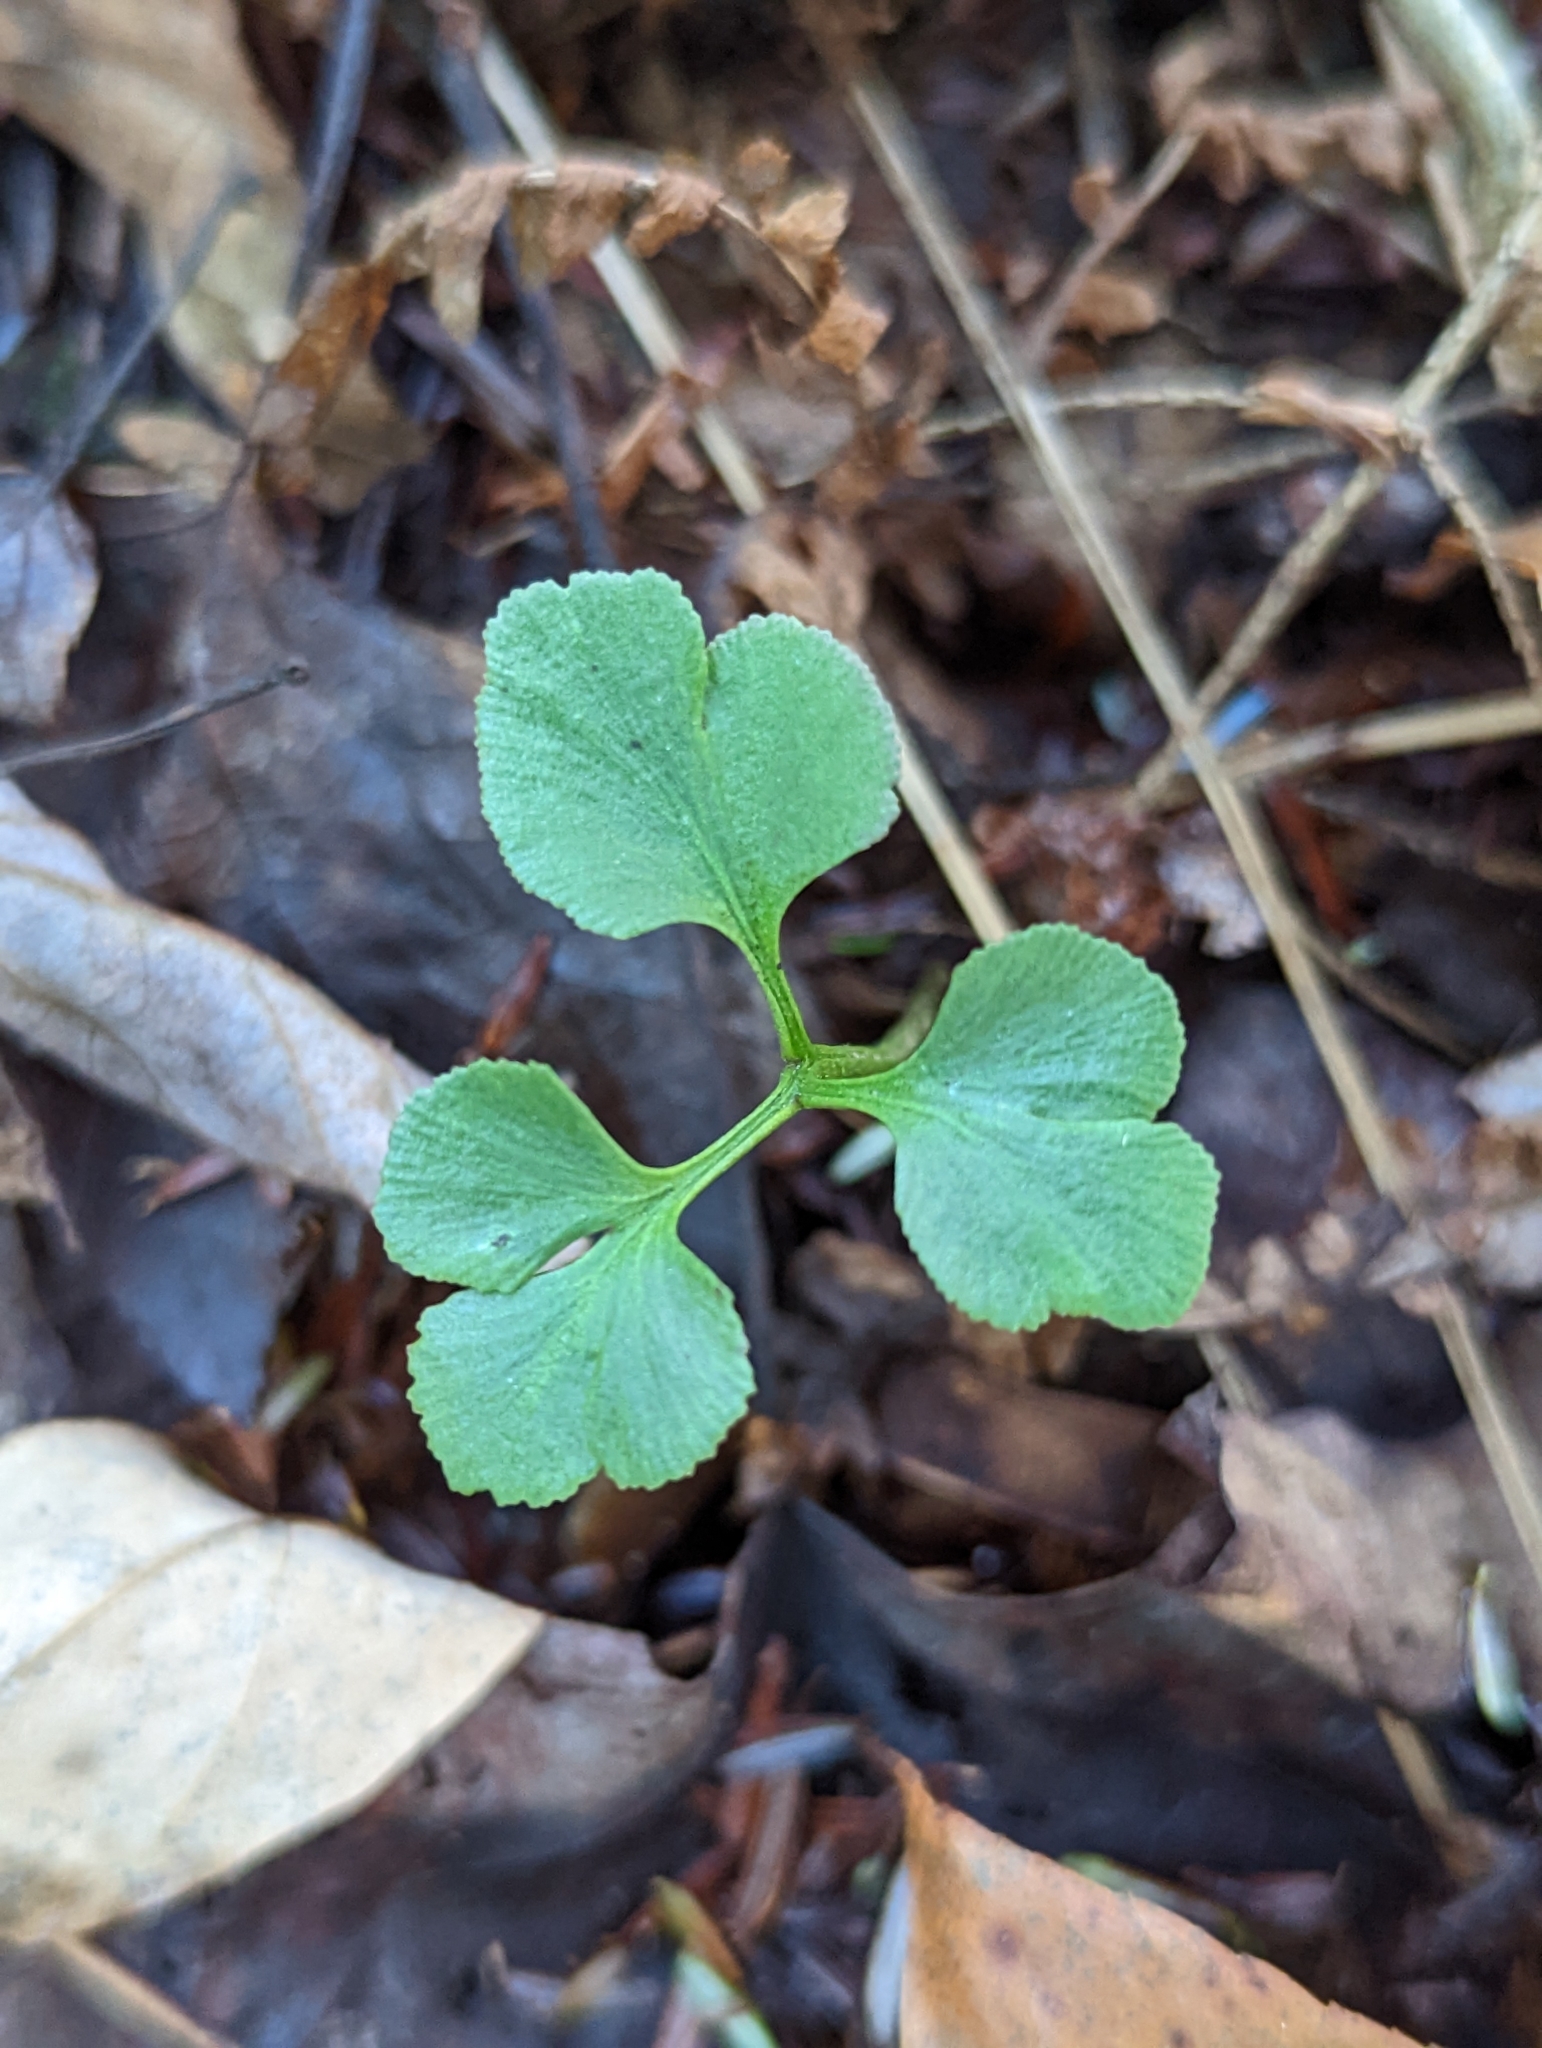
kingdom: Plantae
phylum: Tracheophyta
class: Polypodiopsida
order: Ophioglossales
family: Ophioglossaceae
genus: Sceptridium
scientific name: Sceptridium oneidense
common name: Blunt-lobed grapefern
